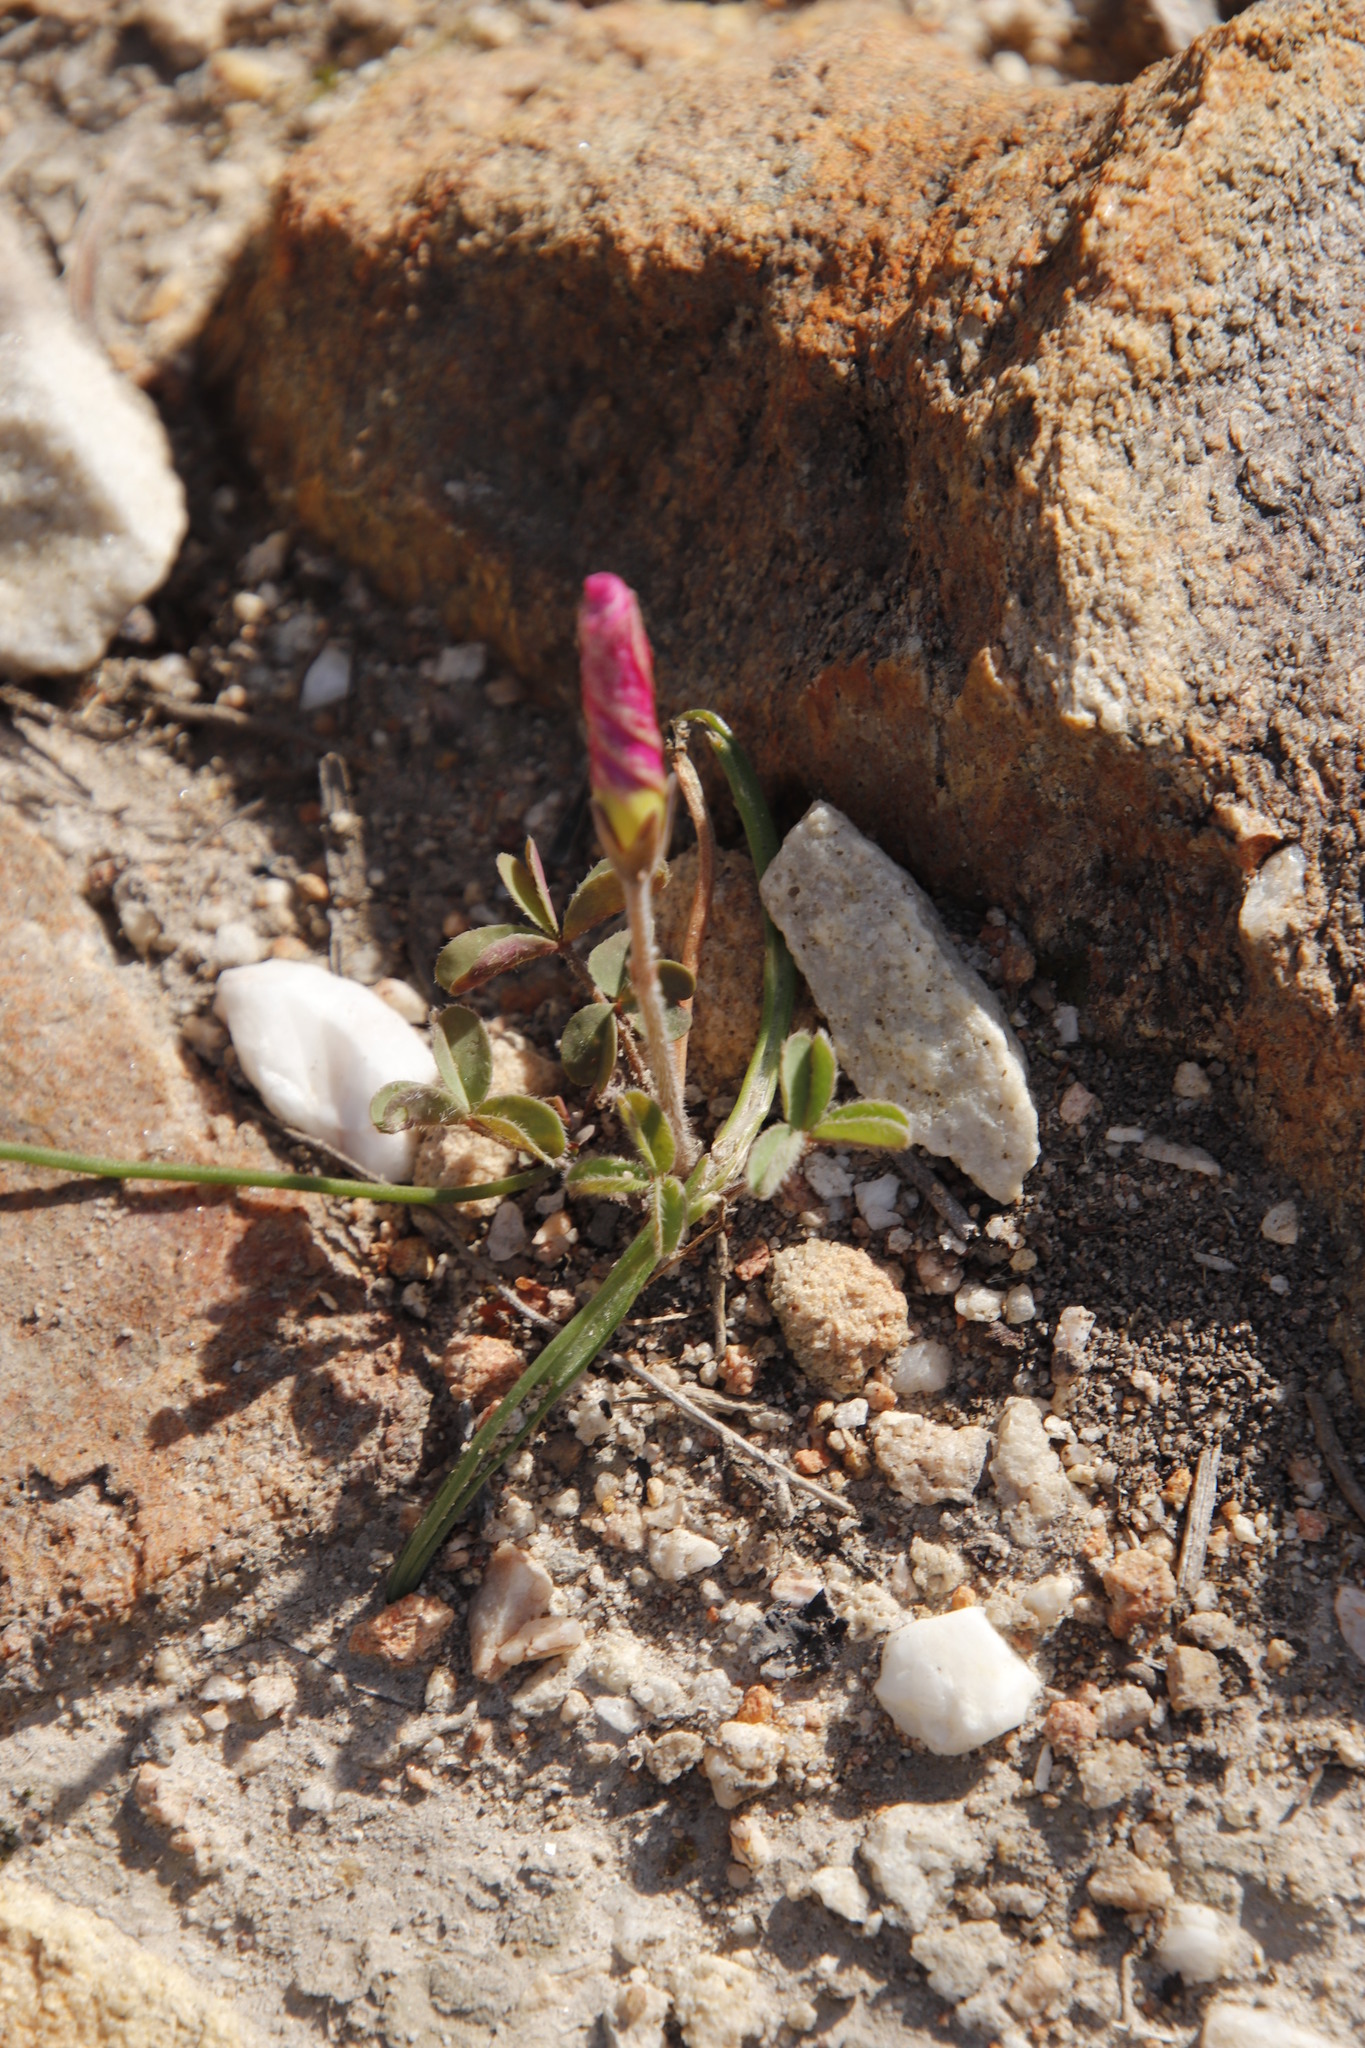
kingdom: Plantae
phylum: Tracheophyta
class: Magnoliopsida
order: Oxalidales
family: Oxalidaceae
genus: Oxalis
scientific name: Oxalis obtusa
